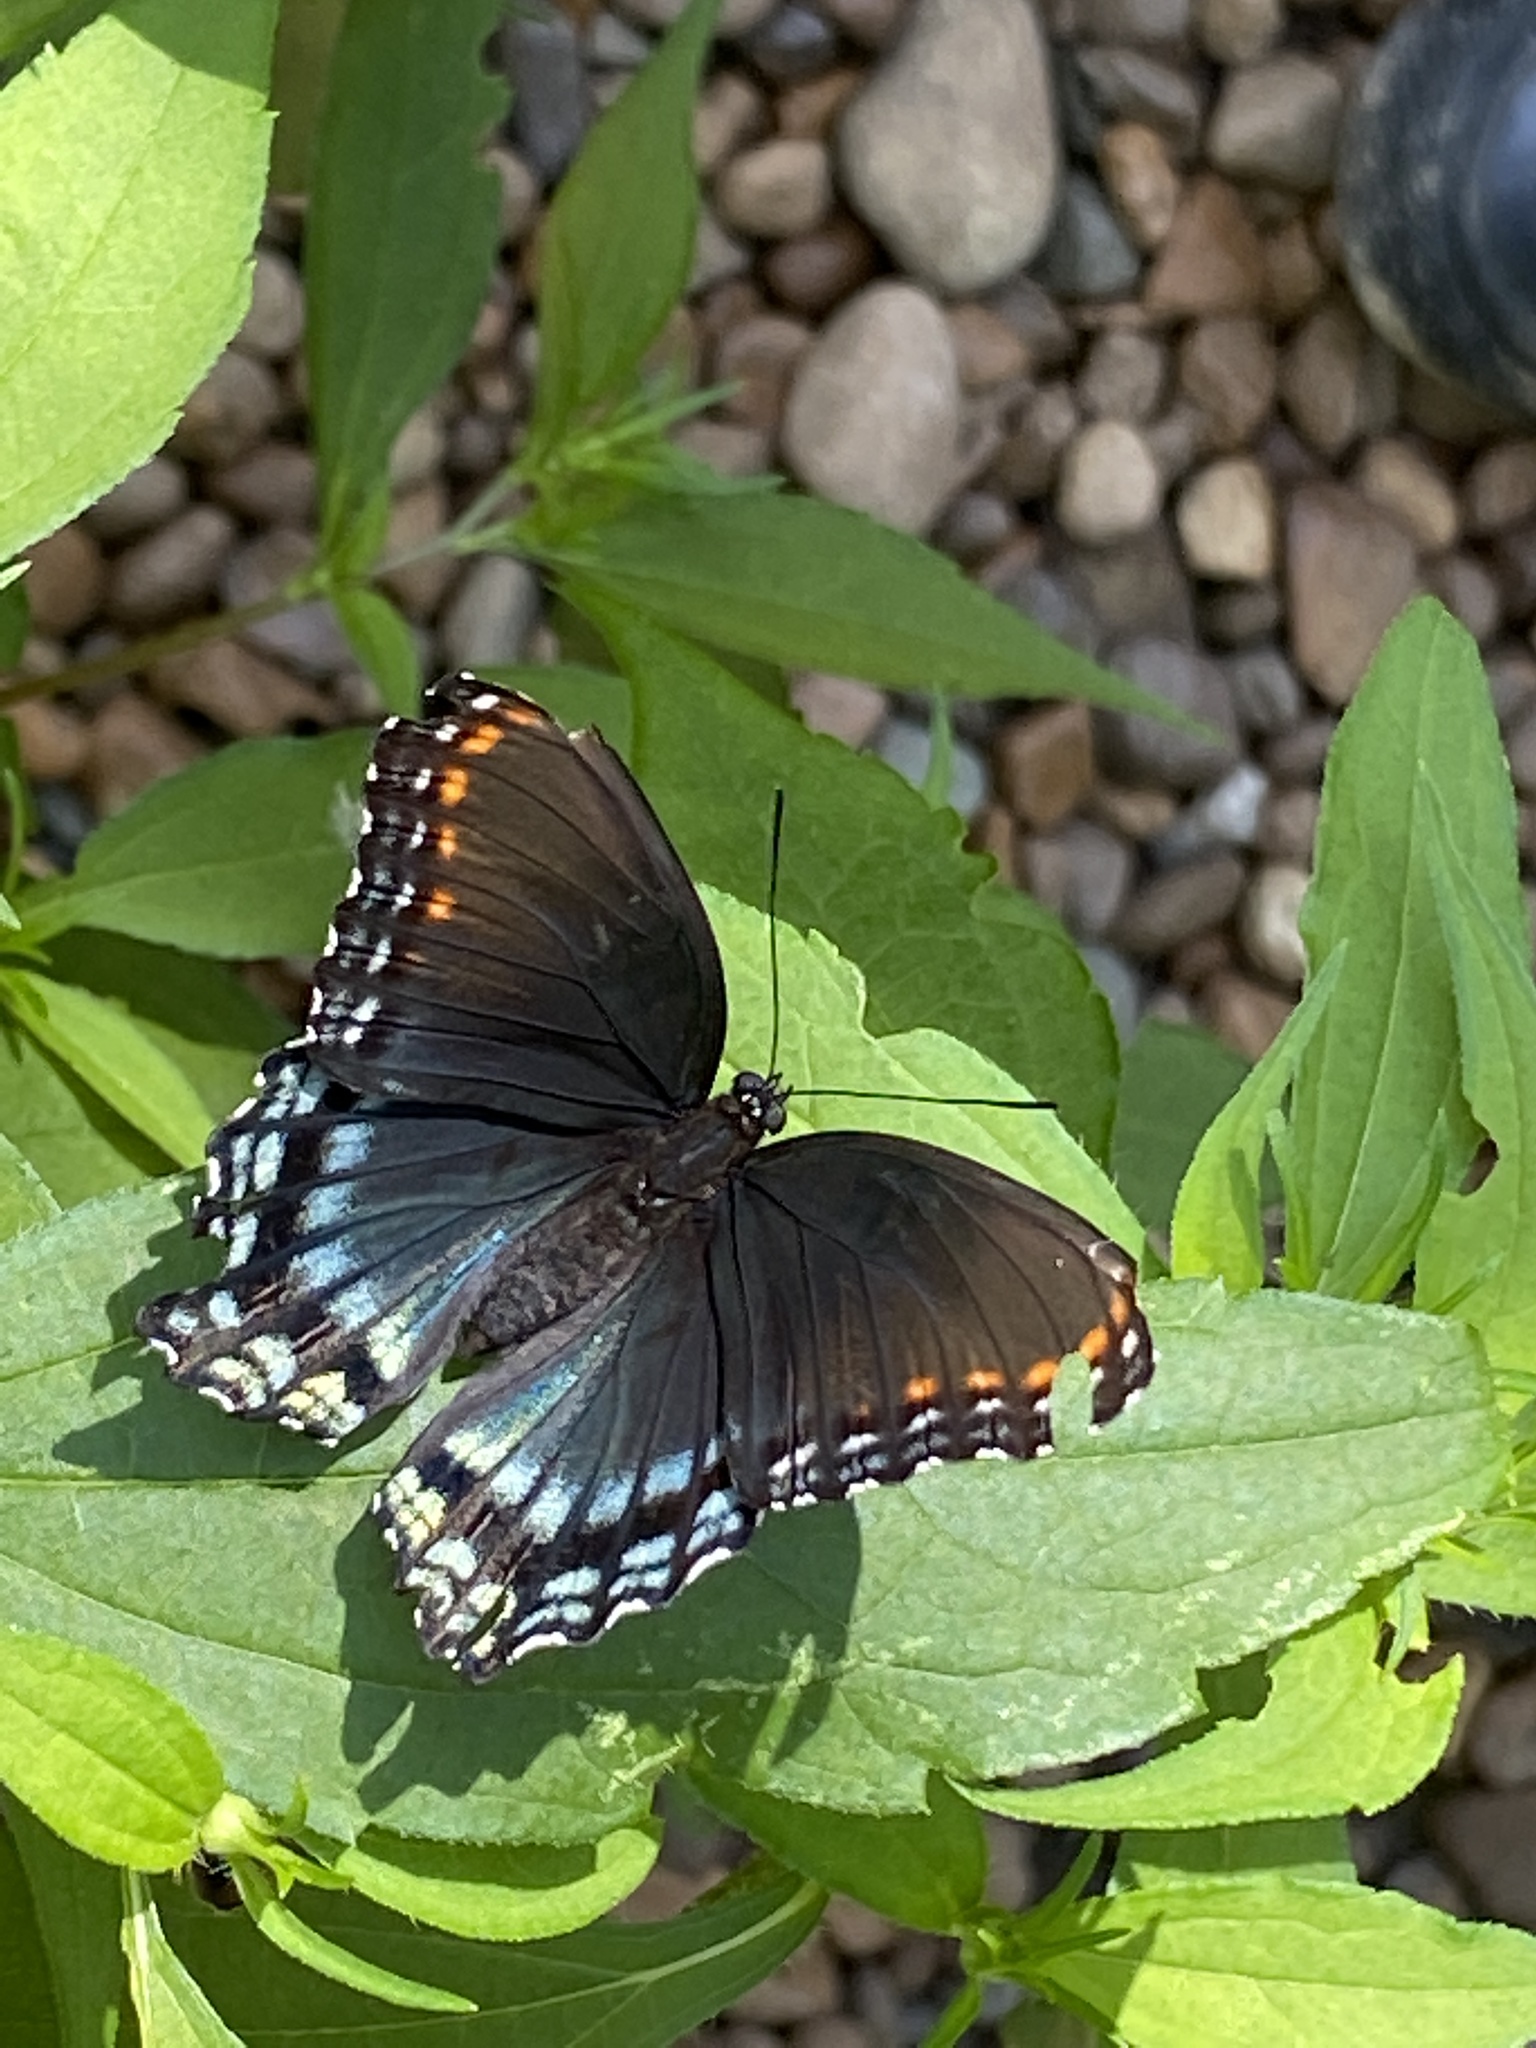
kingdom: Animalia
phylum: Arthropoda
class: Insecta
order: Lepidoptera
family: Nymphalidae
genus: Limenitis
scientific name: Limenitis astyanax
